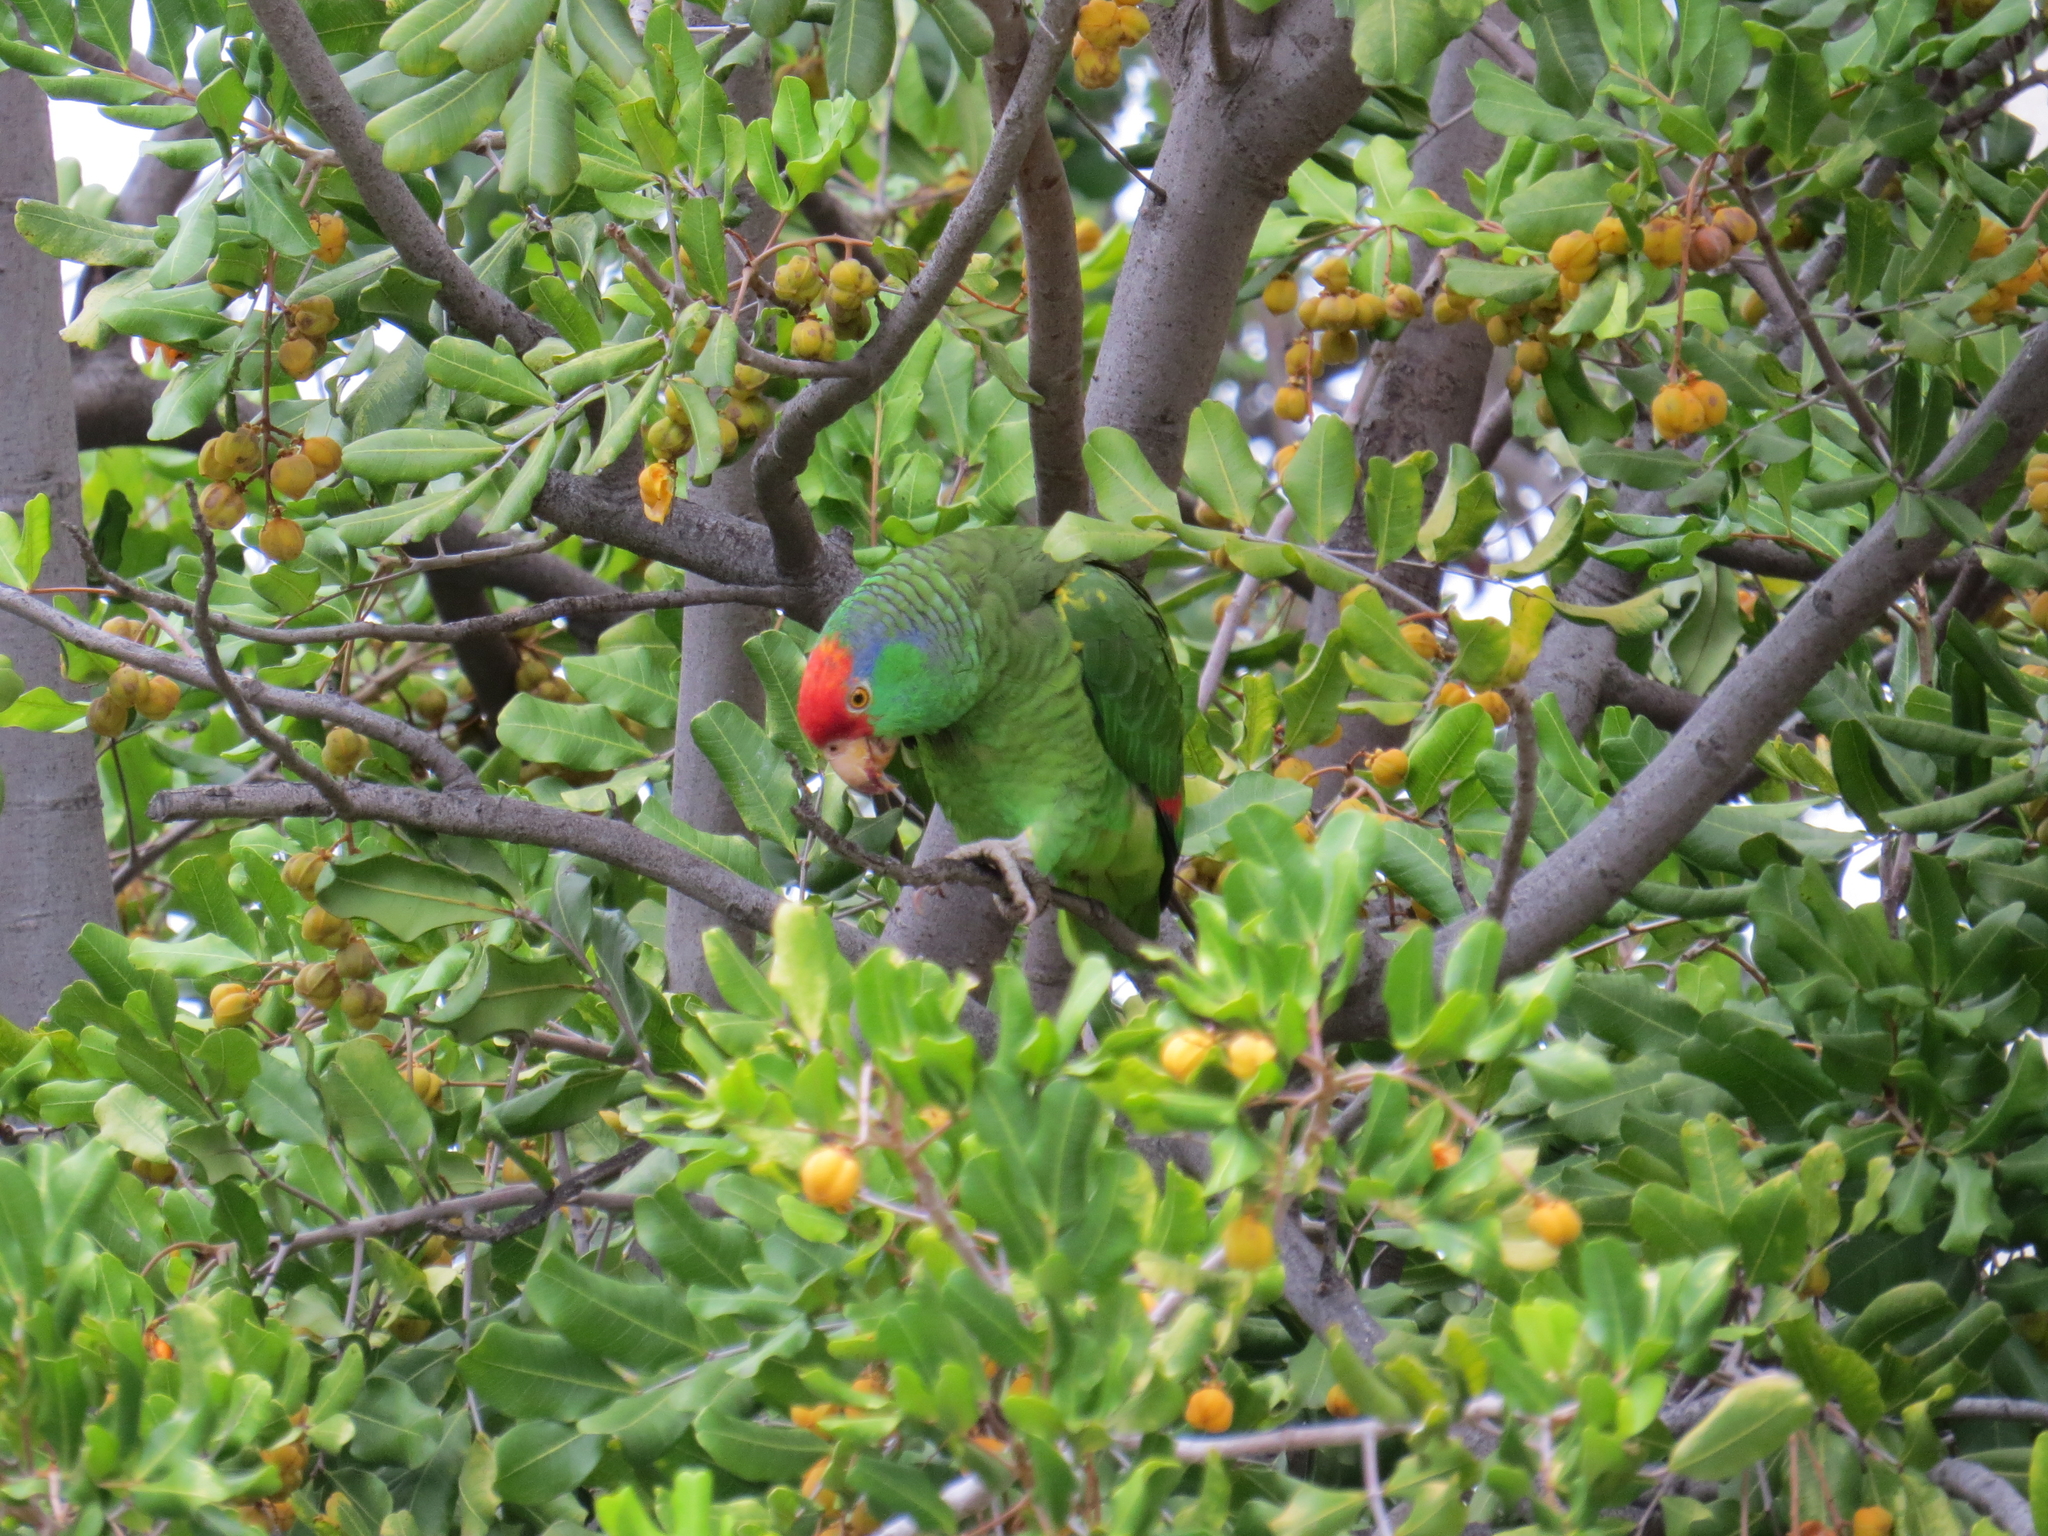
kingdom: Animalia
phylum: Chordata
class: Aves
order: Psittaciformes
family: Psittacidae
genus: Amazona
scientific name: Amazona viridigenalis
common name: Red-crowned amazon
